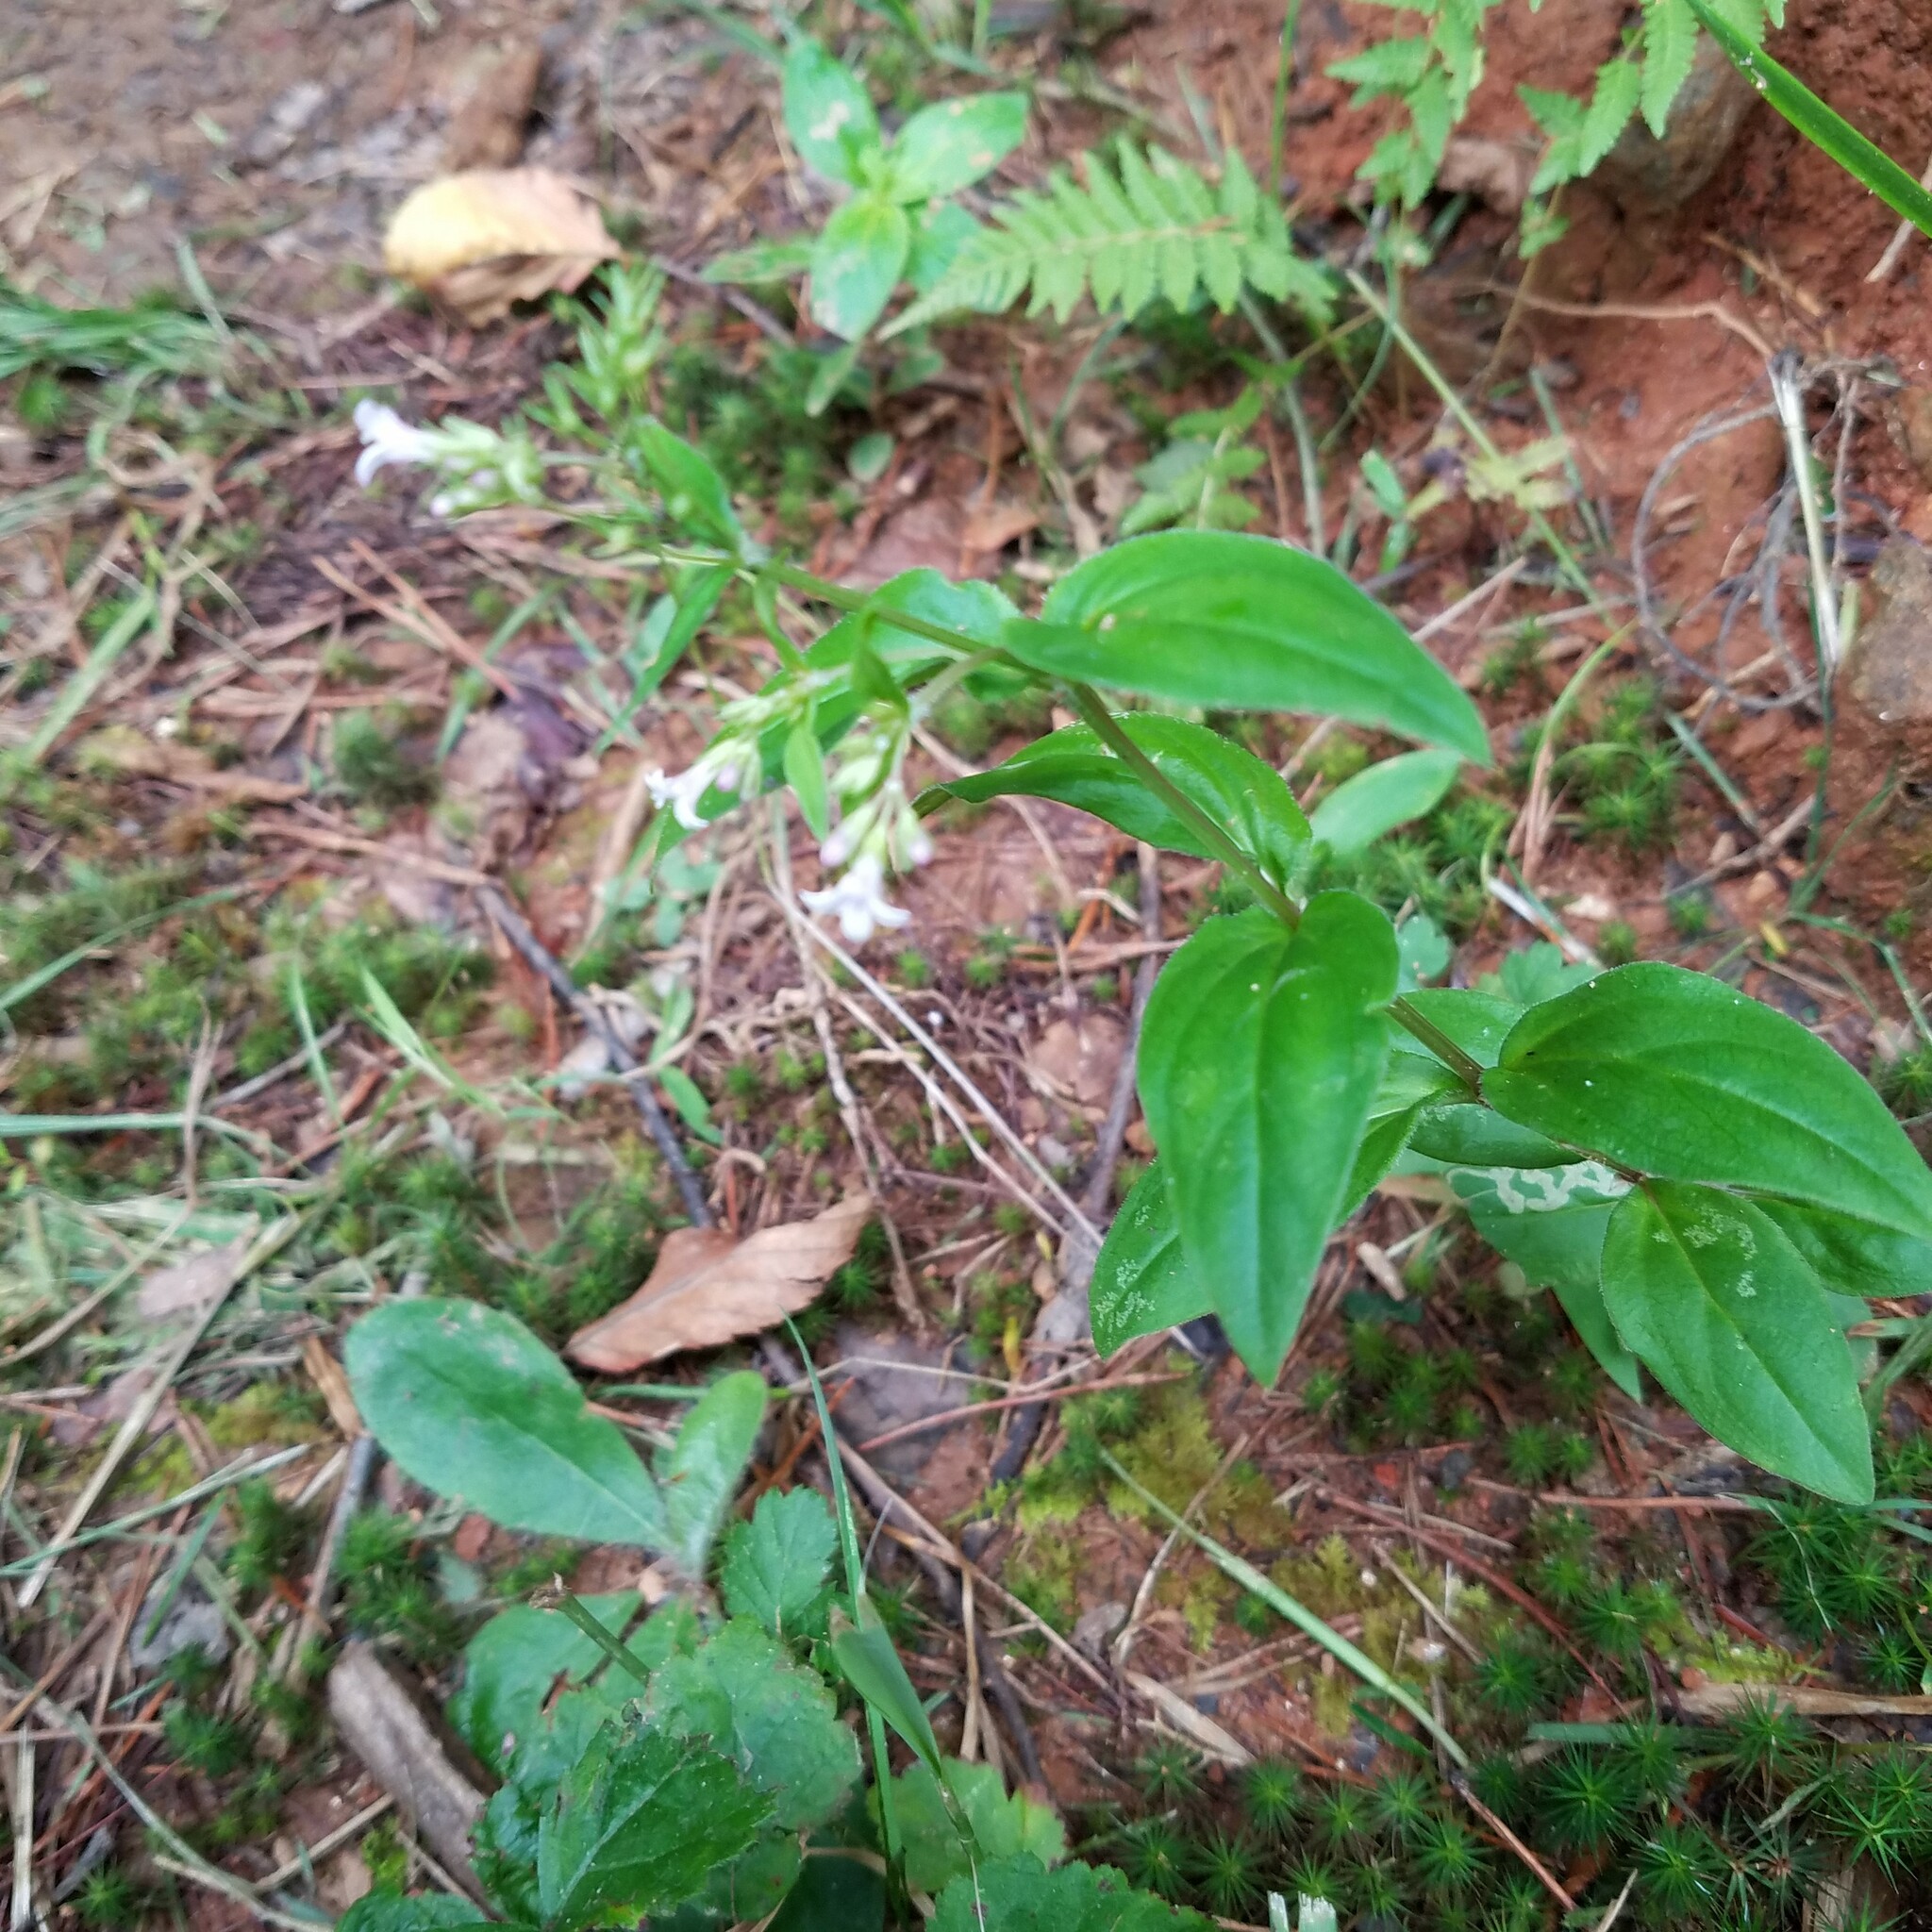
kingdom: Plantae
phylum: Tracheophyta
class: Magnoliopsida
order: Gentianales
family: Rubiaceae
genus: Houstonia
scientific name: Houstonia purpurea
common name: Summer bluet
